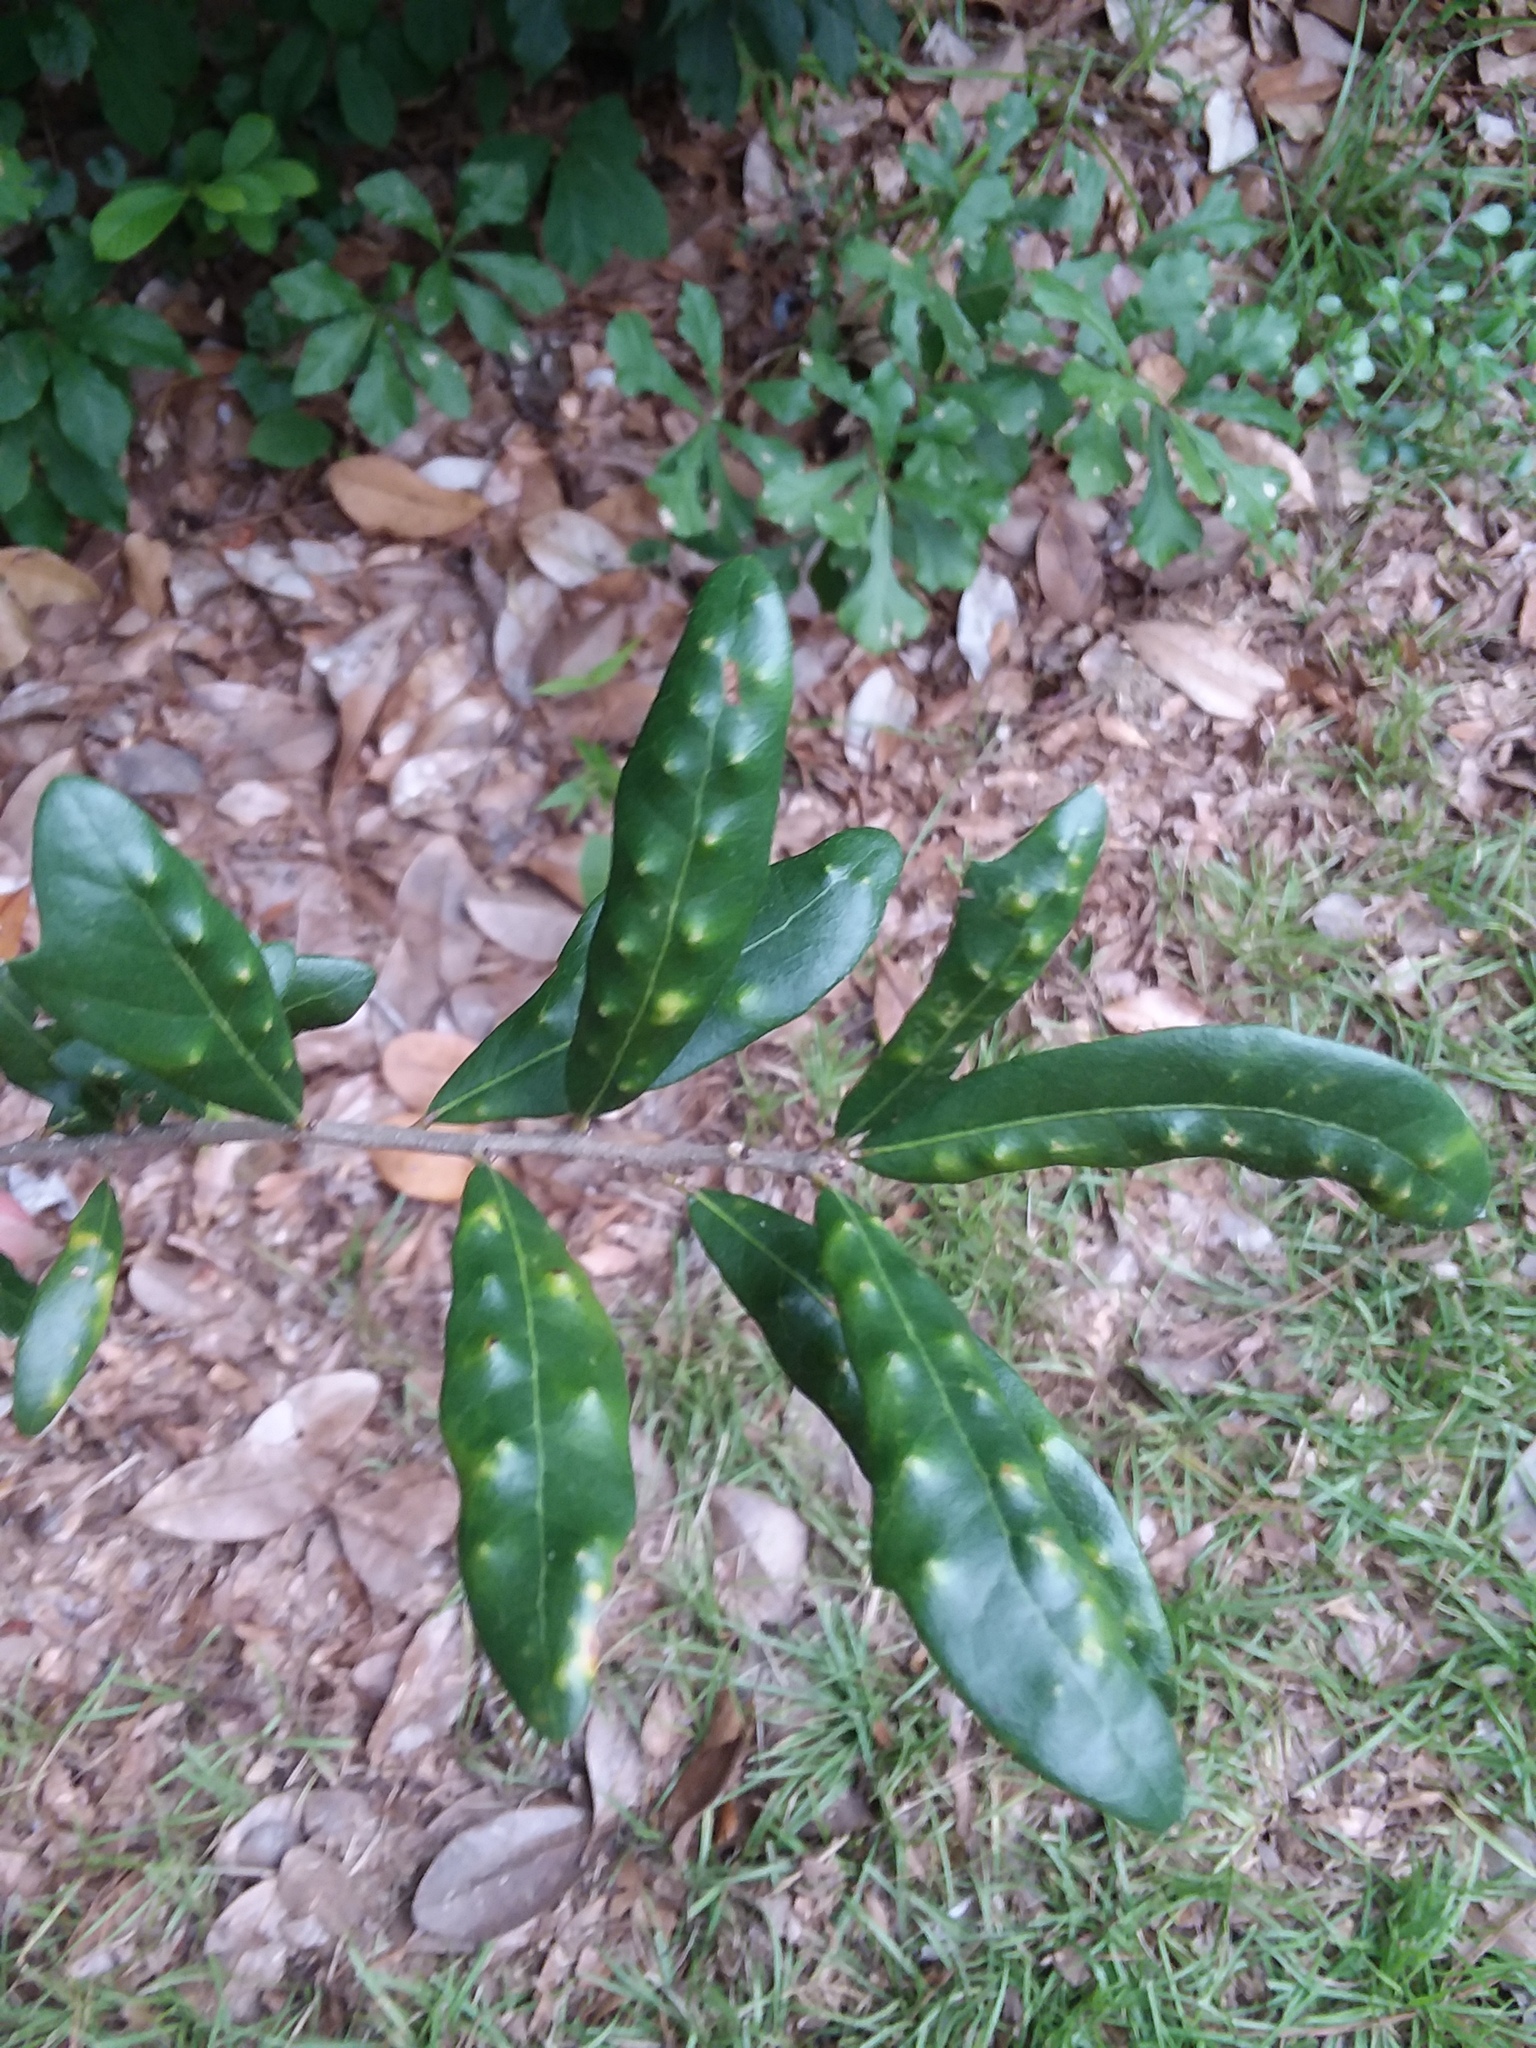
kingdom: Animalia
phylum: Arthropoda
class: Insecta
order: Hymenoptera
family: Cynipidae
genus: Belonocnema
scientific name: Belonocnema treatae
